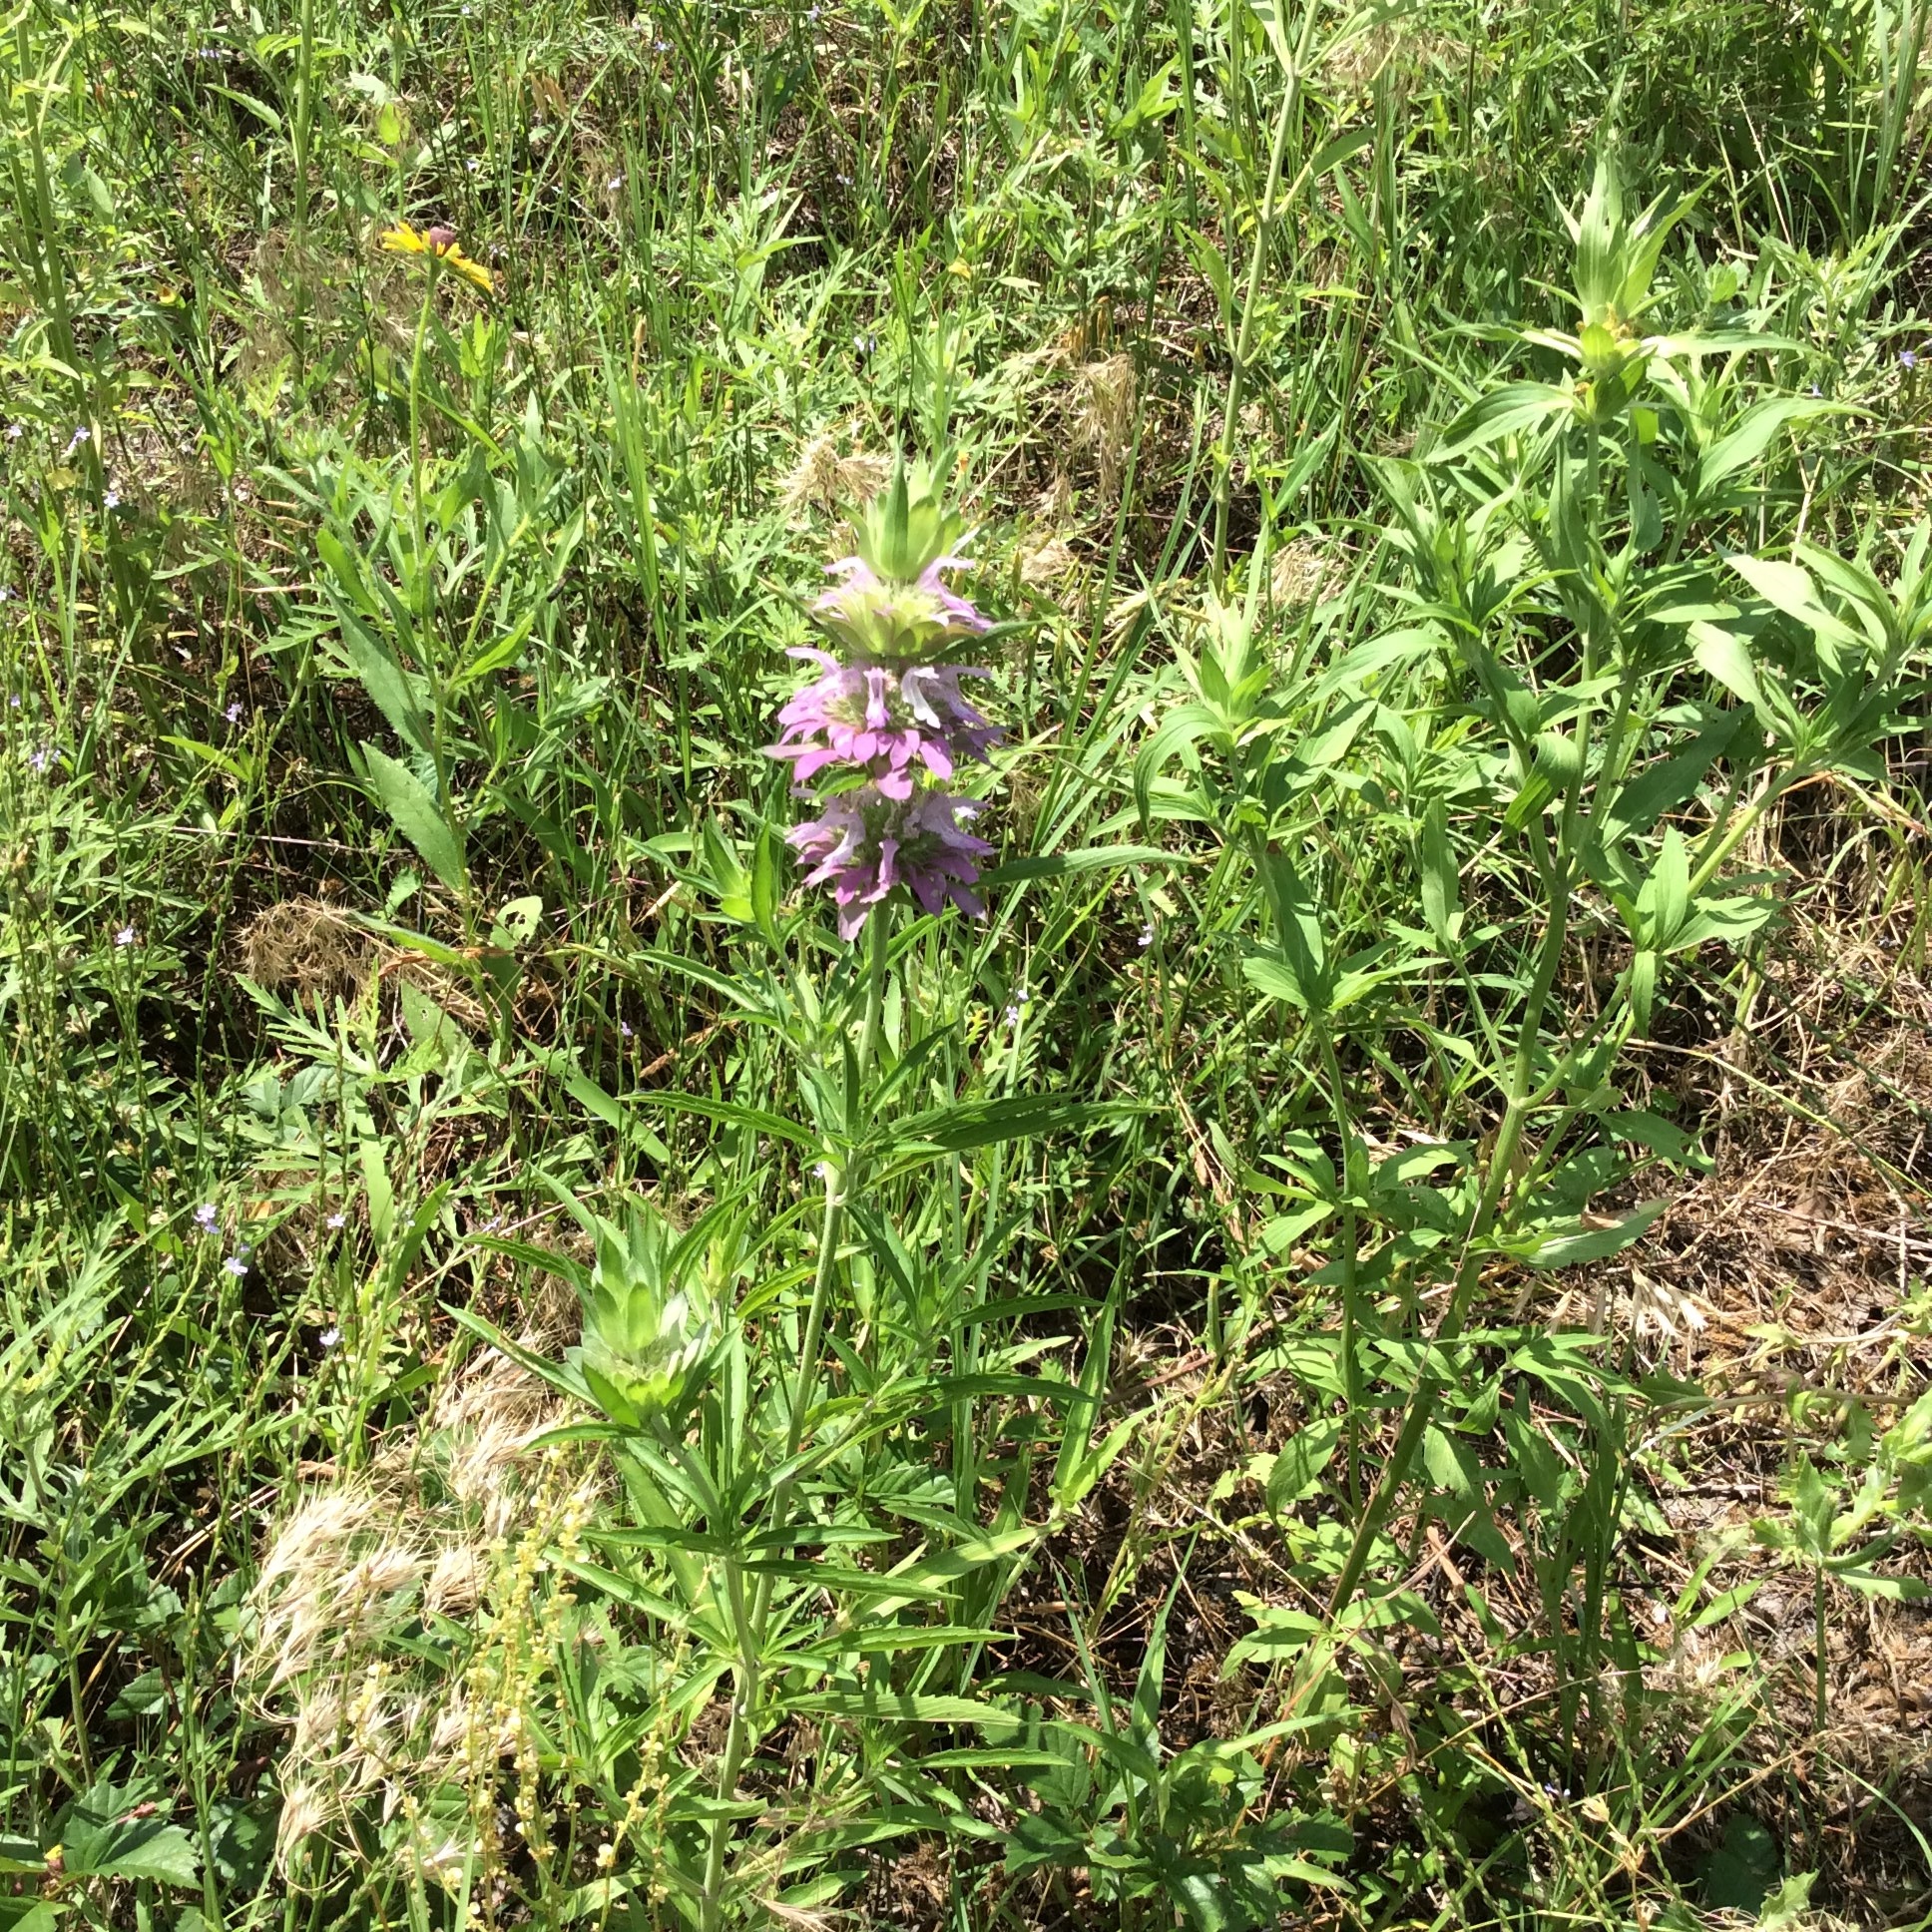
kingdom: Plantae
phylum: Tracheophyta
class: Magnoliopsida
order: Lamiales
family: Lamiaceae
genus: Monarda
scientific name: Monarda citriodora
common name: Lemon beebalm
